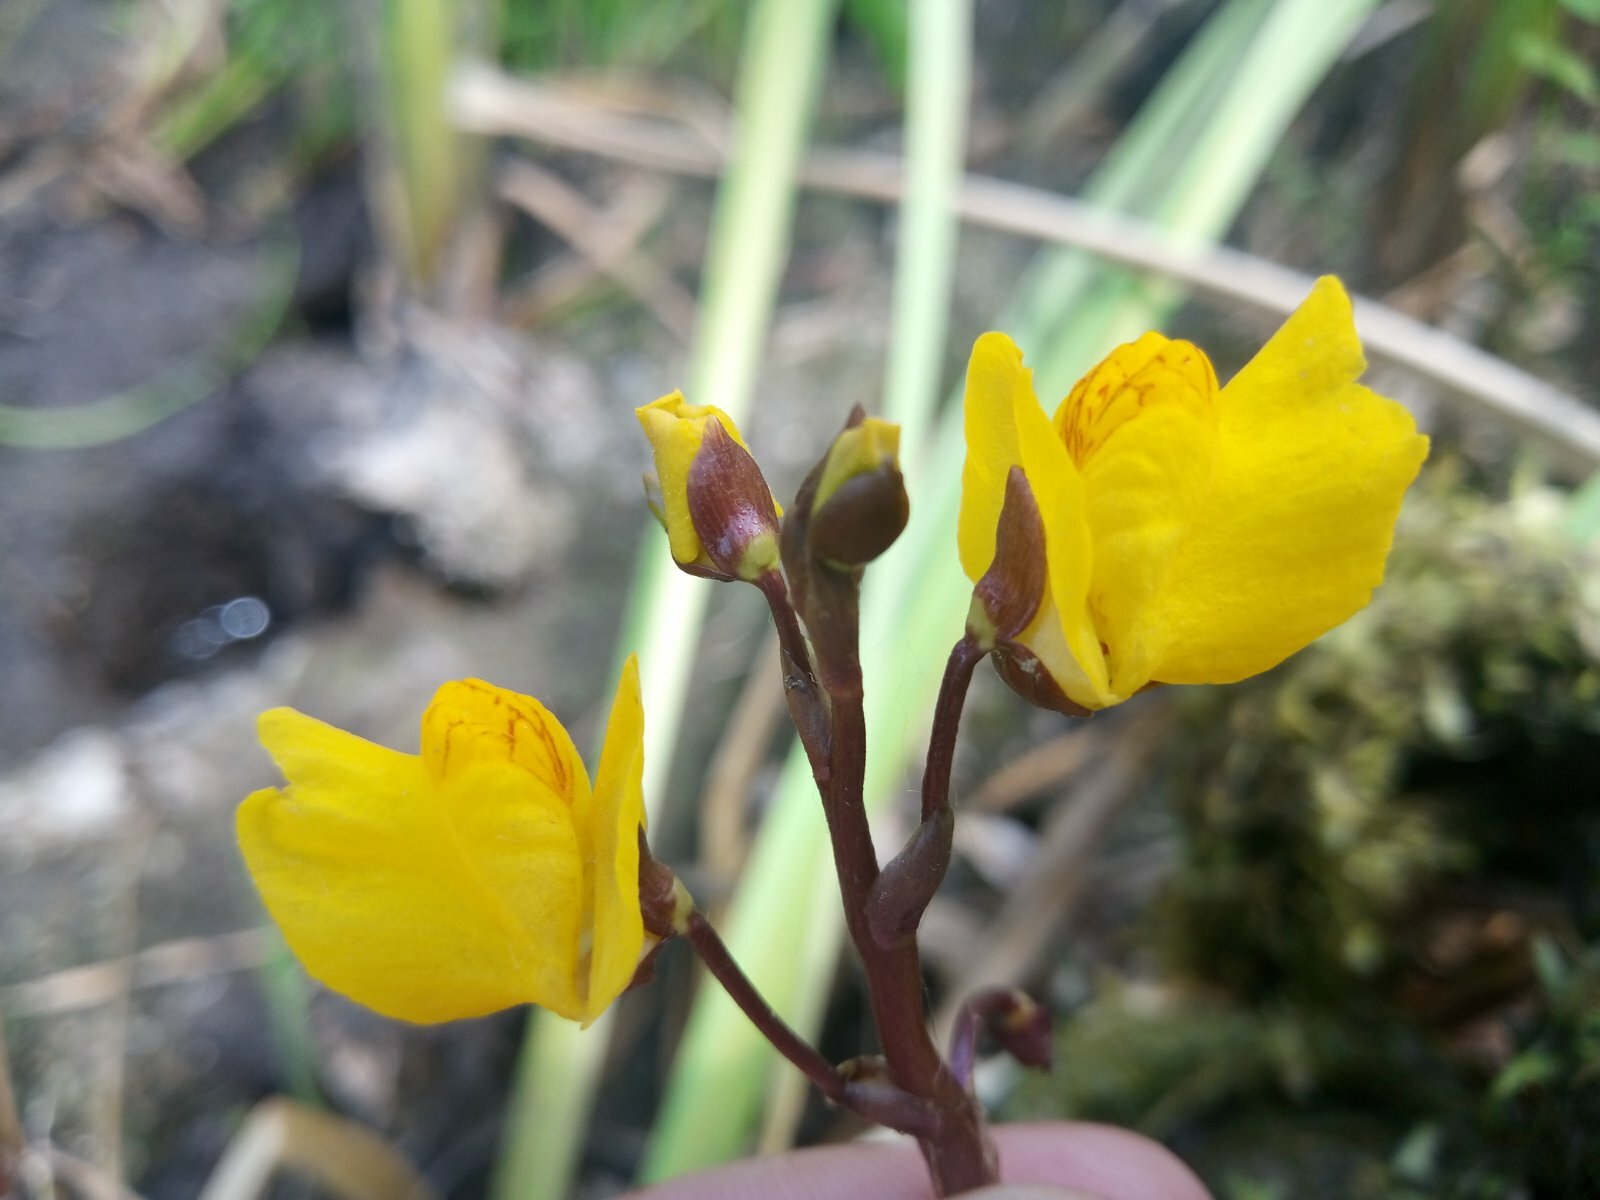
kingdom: Plantae
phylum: Tracheophyta
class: Magnoliopsida
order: Lamiales
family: Lentibulariaceae
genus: Utricularia
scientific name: Utricularia vulgaris
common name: Greater bladderwort
